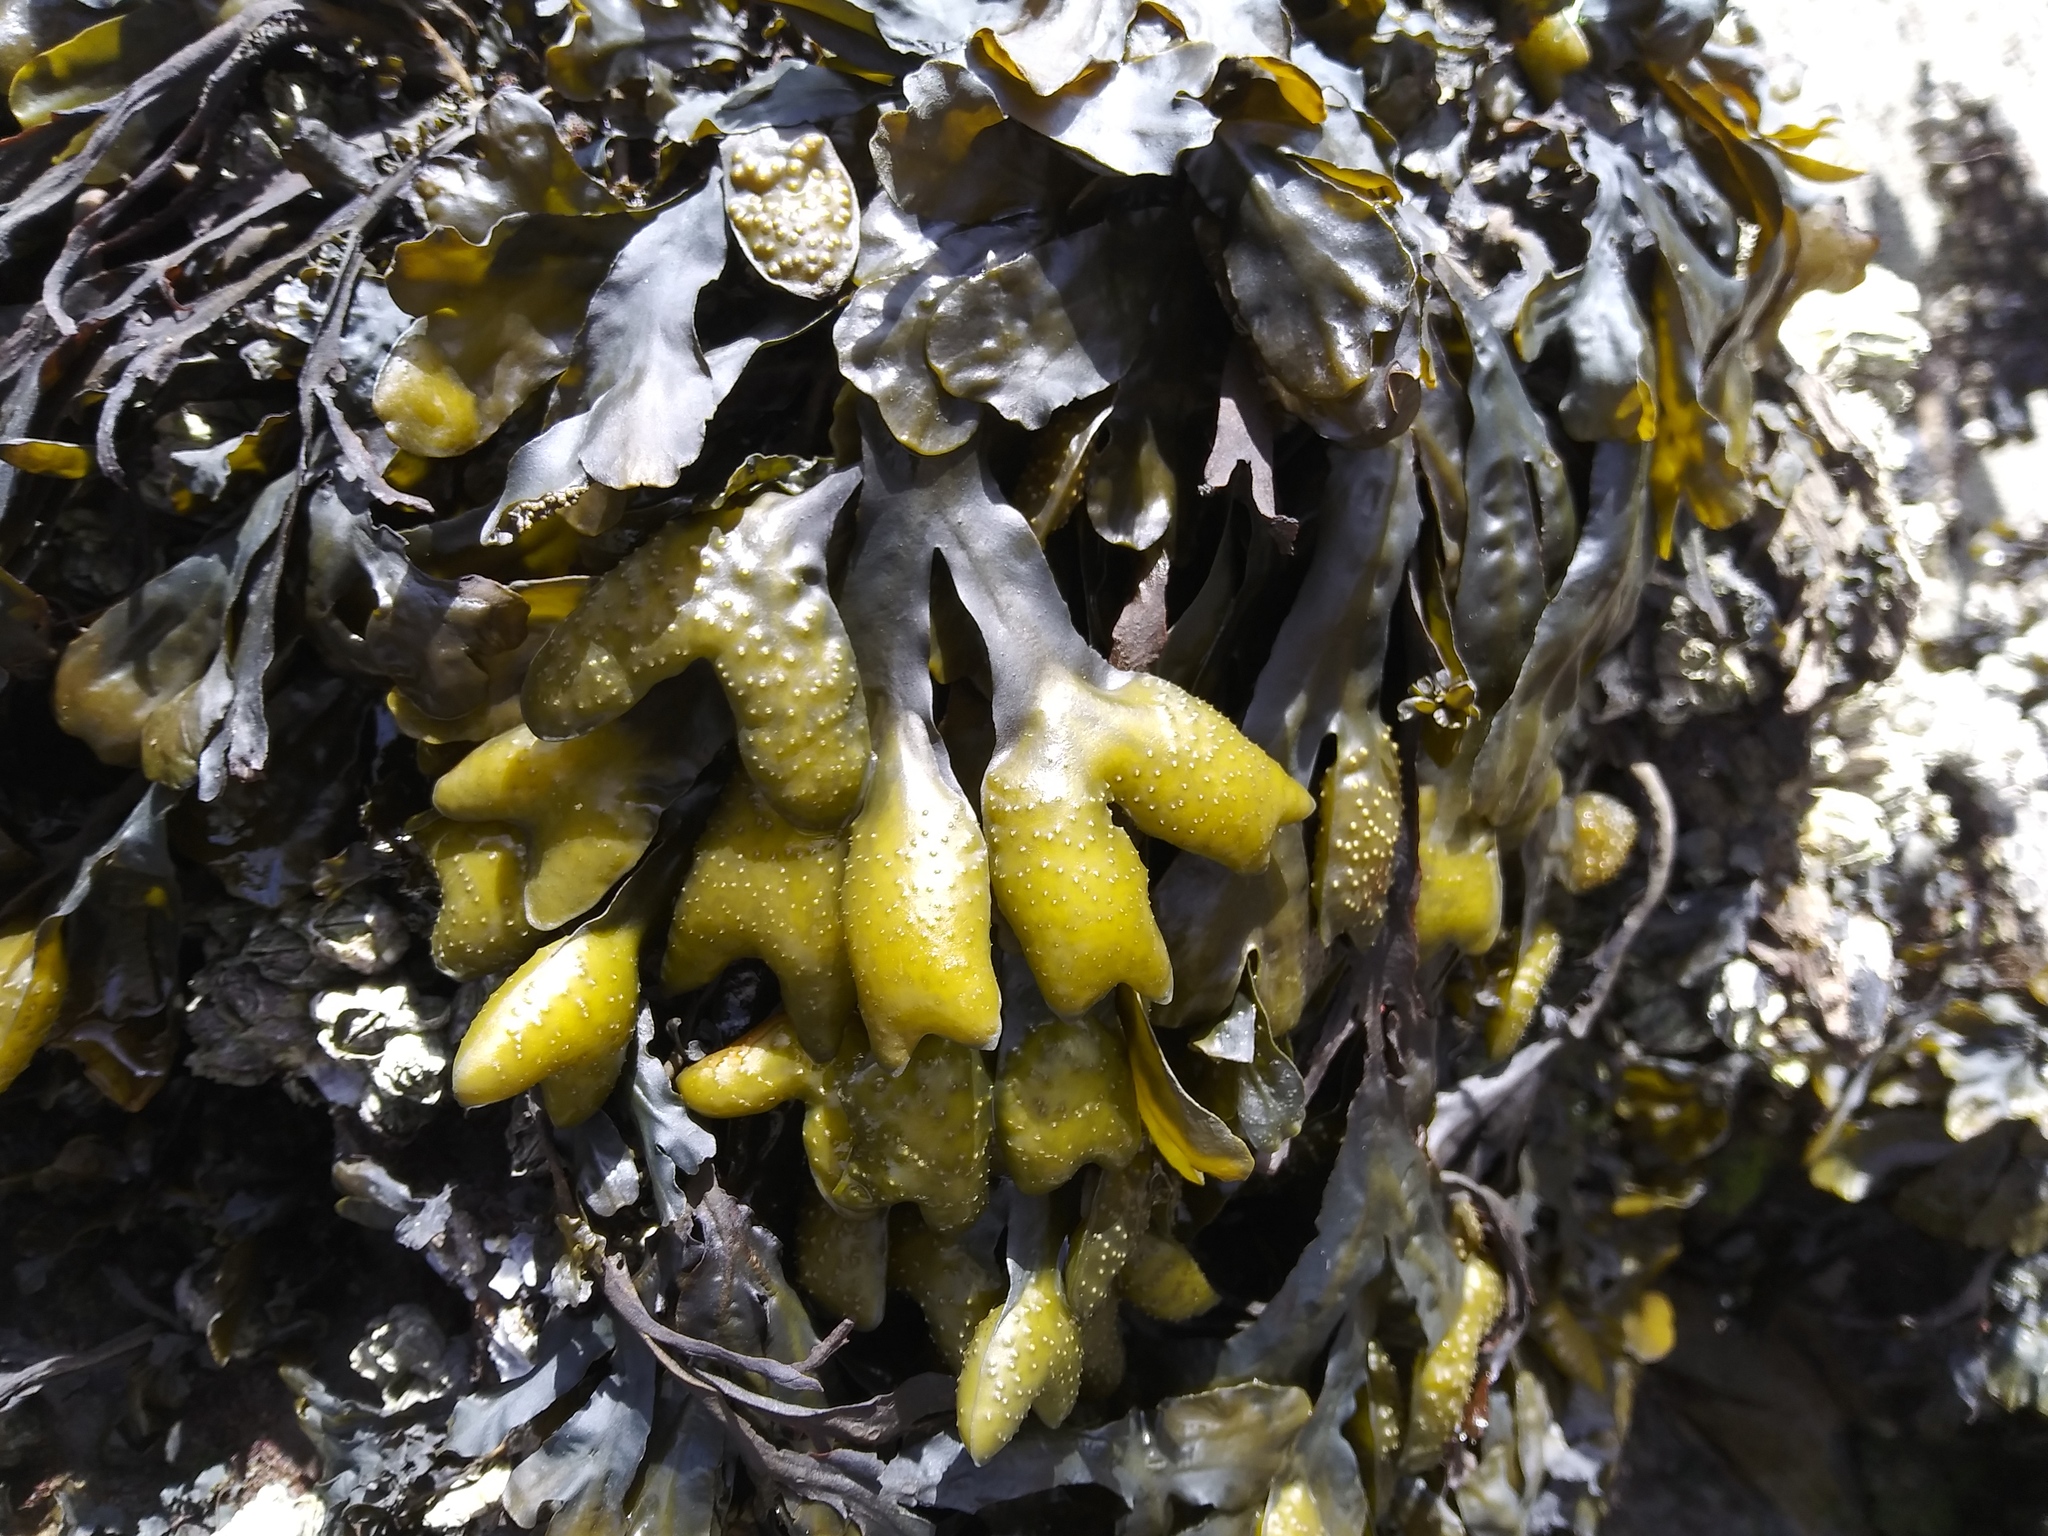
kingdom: Chromista
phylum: Ochrophyta
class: Phaeophyceae
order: Fucales
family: Fucaceae
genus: Fucus
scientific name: Fucus distichus
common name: Rockweed
